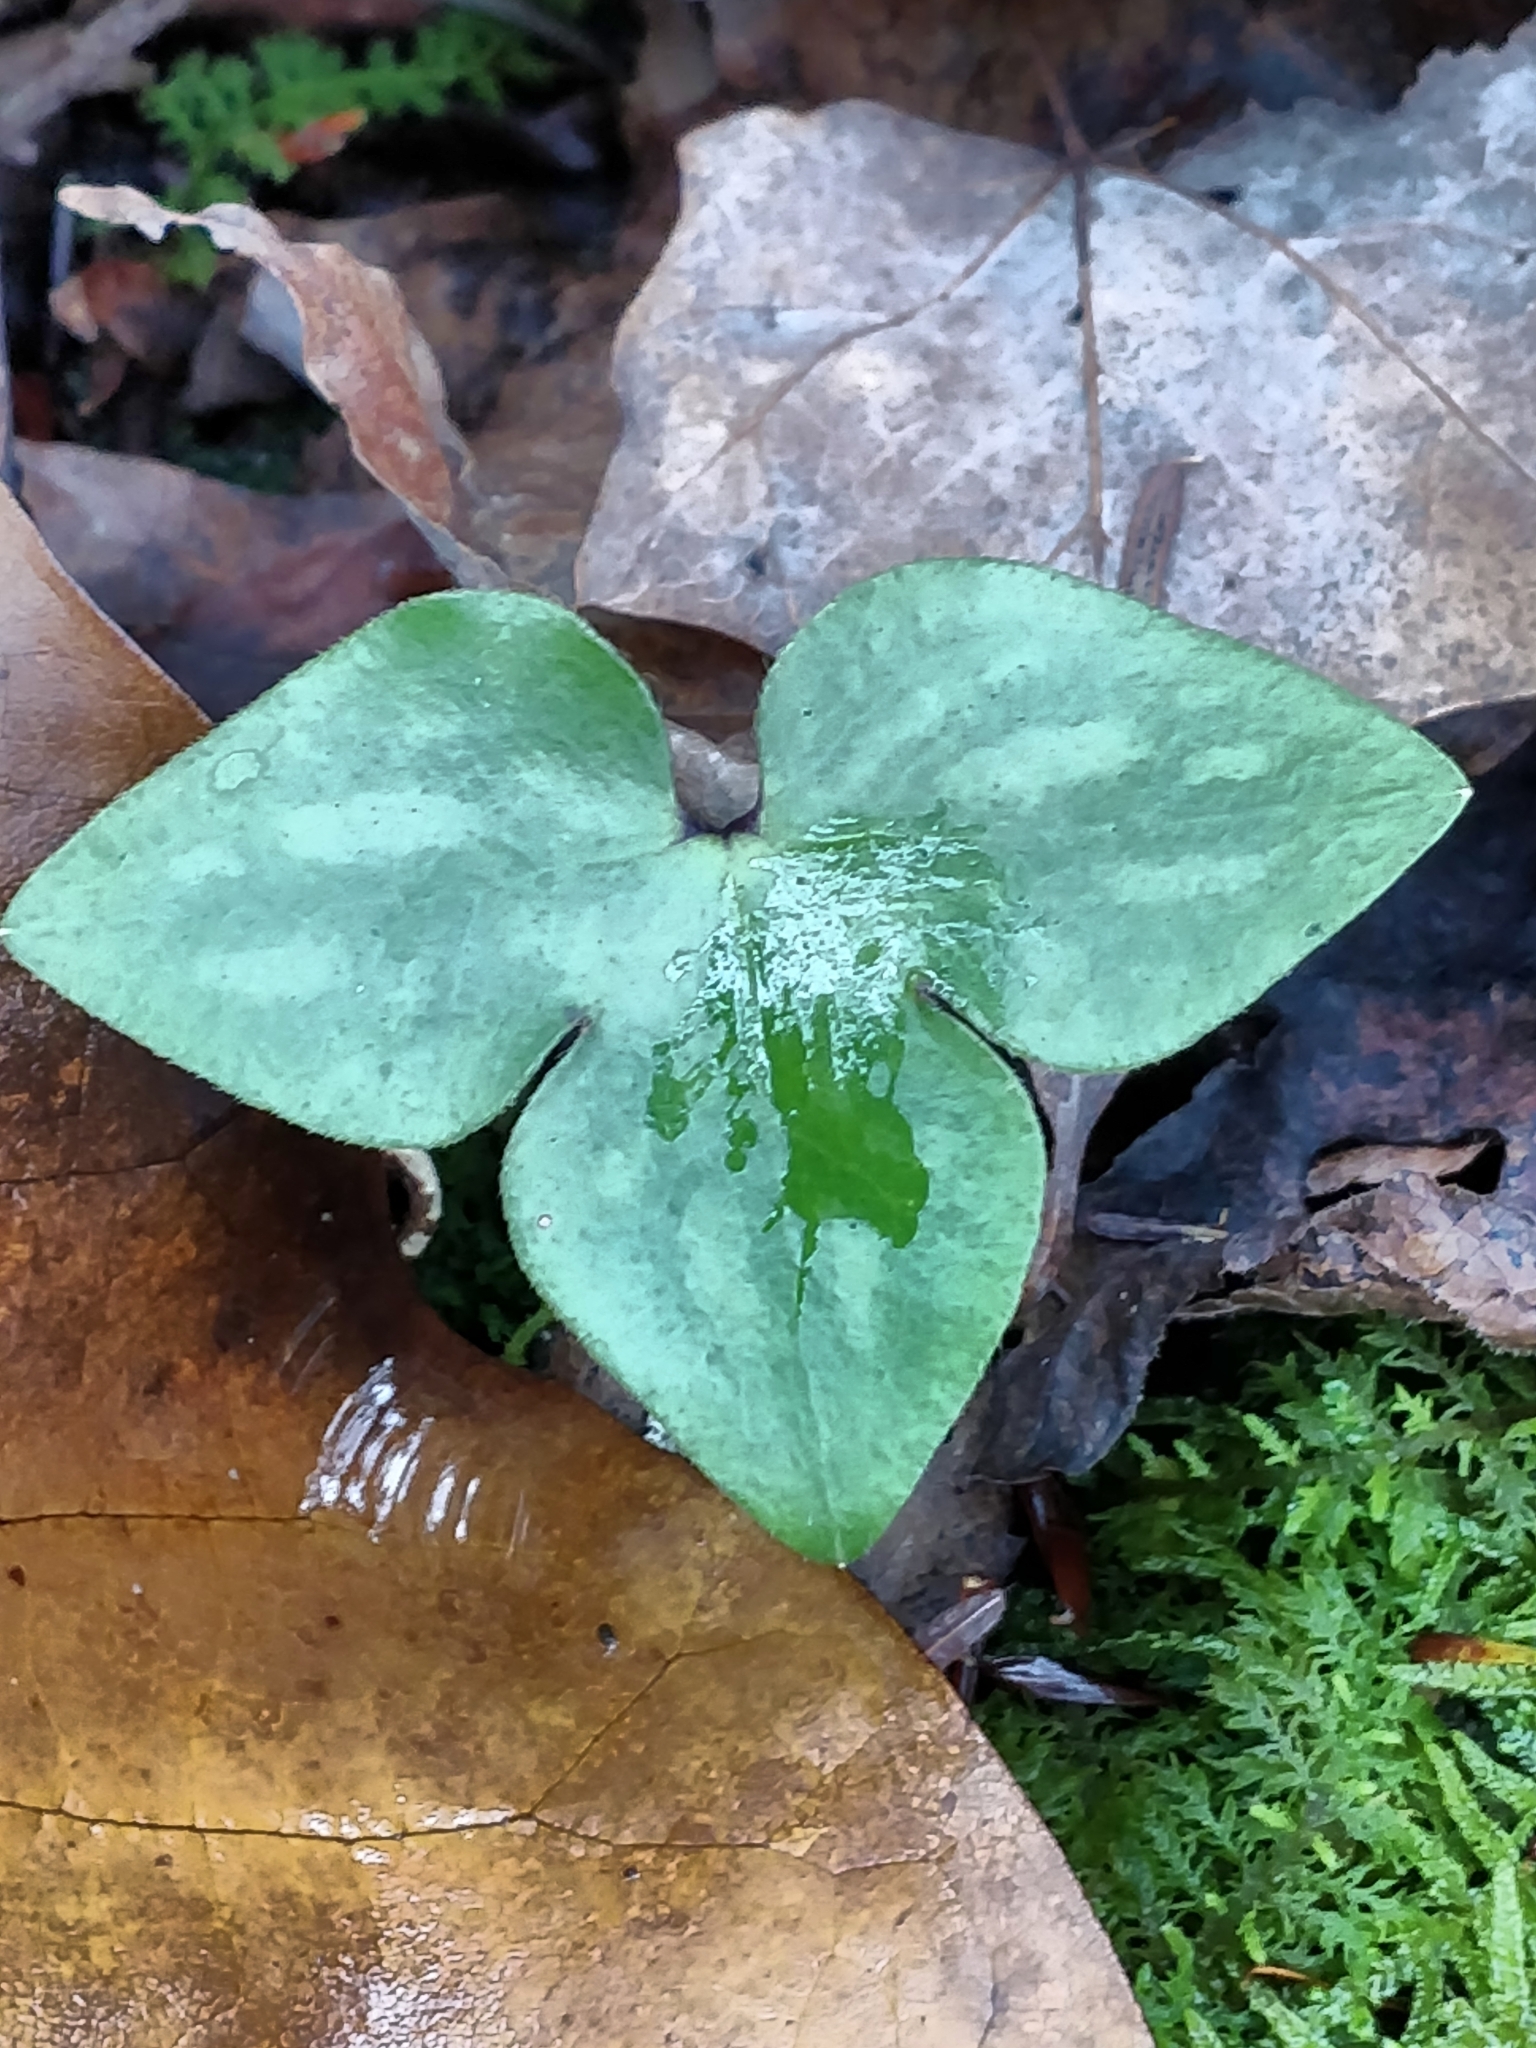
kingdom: Plantae
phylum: Tracheophyta
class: Magnoliopsida
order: Ranunculales
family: Ranunculaceae
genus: Hepatica
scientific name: Hepatica acutiloba
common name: Sharp-lobed hepatica
